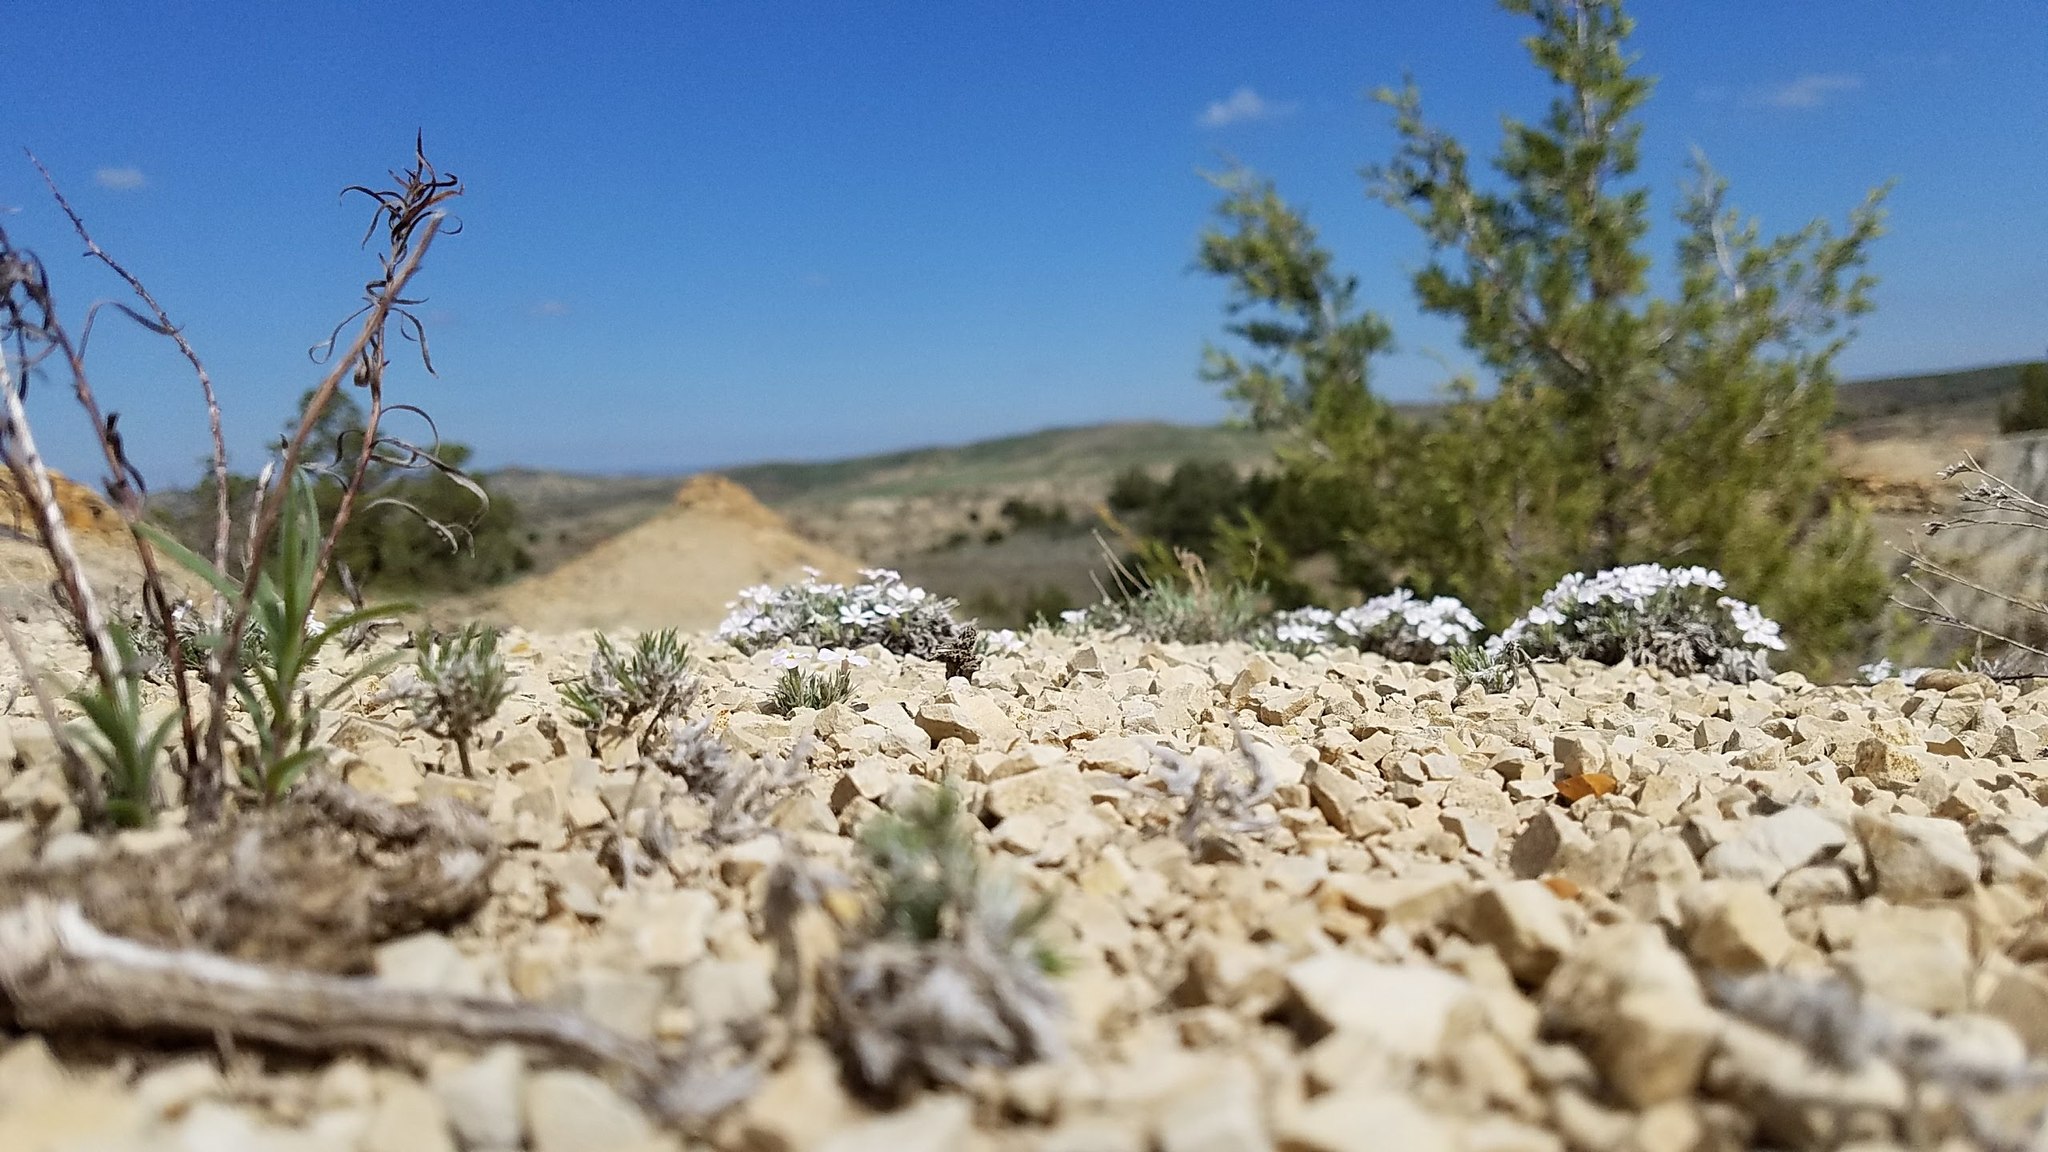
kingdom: Plantae
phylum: Tracheophyta
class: Magnoliopsida
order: Ericales
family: Polemoniaceae
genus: Phlox
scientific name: Phlox hoodii
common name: Moss phlox
